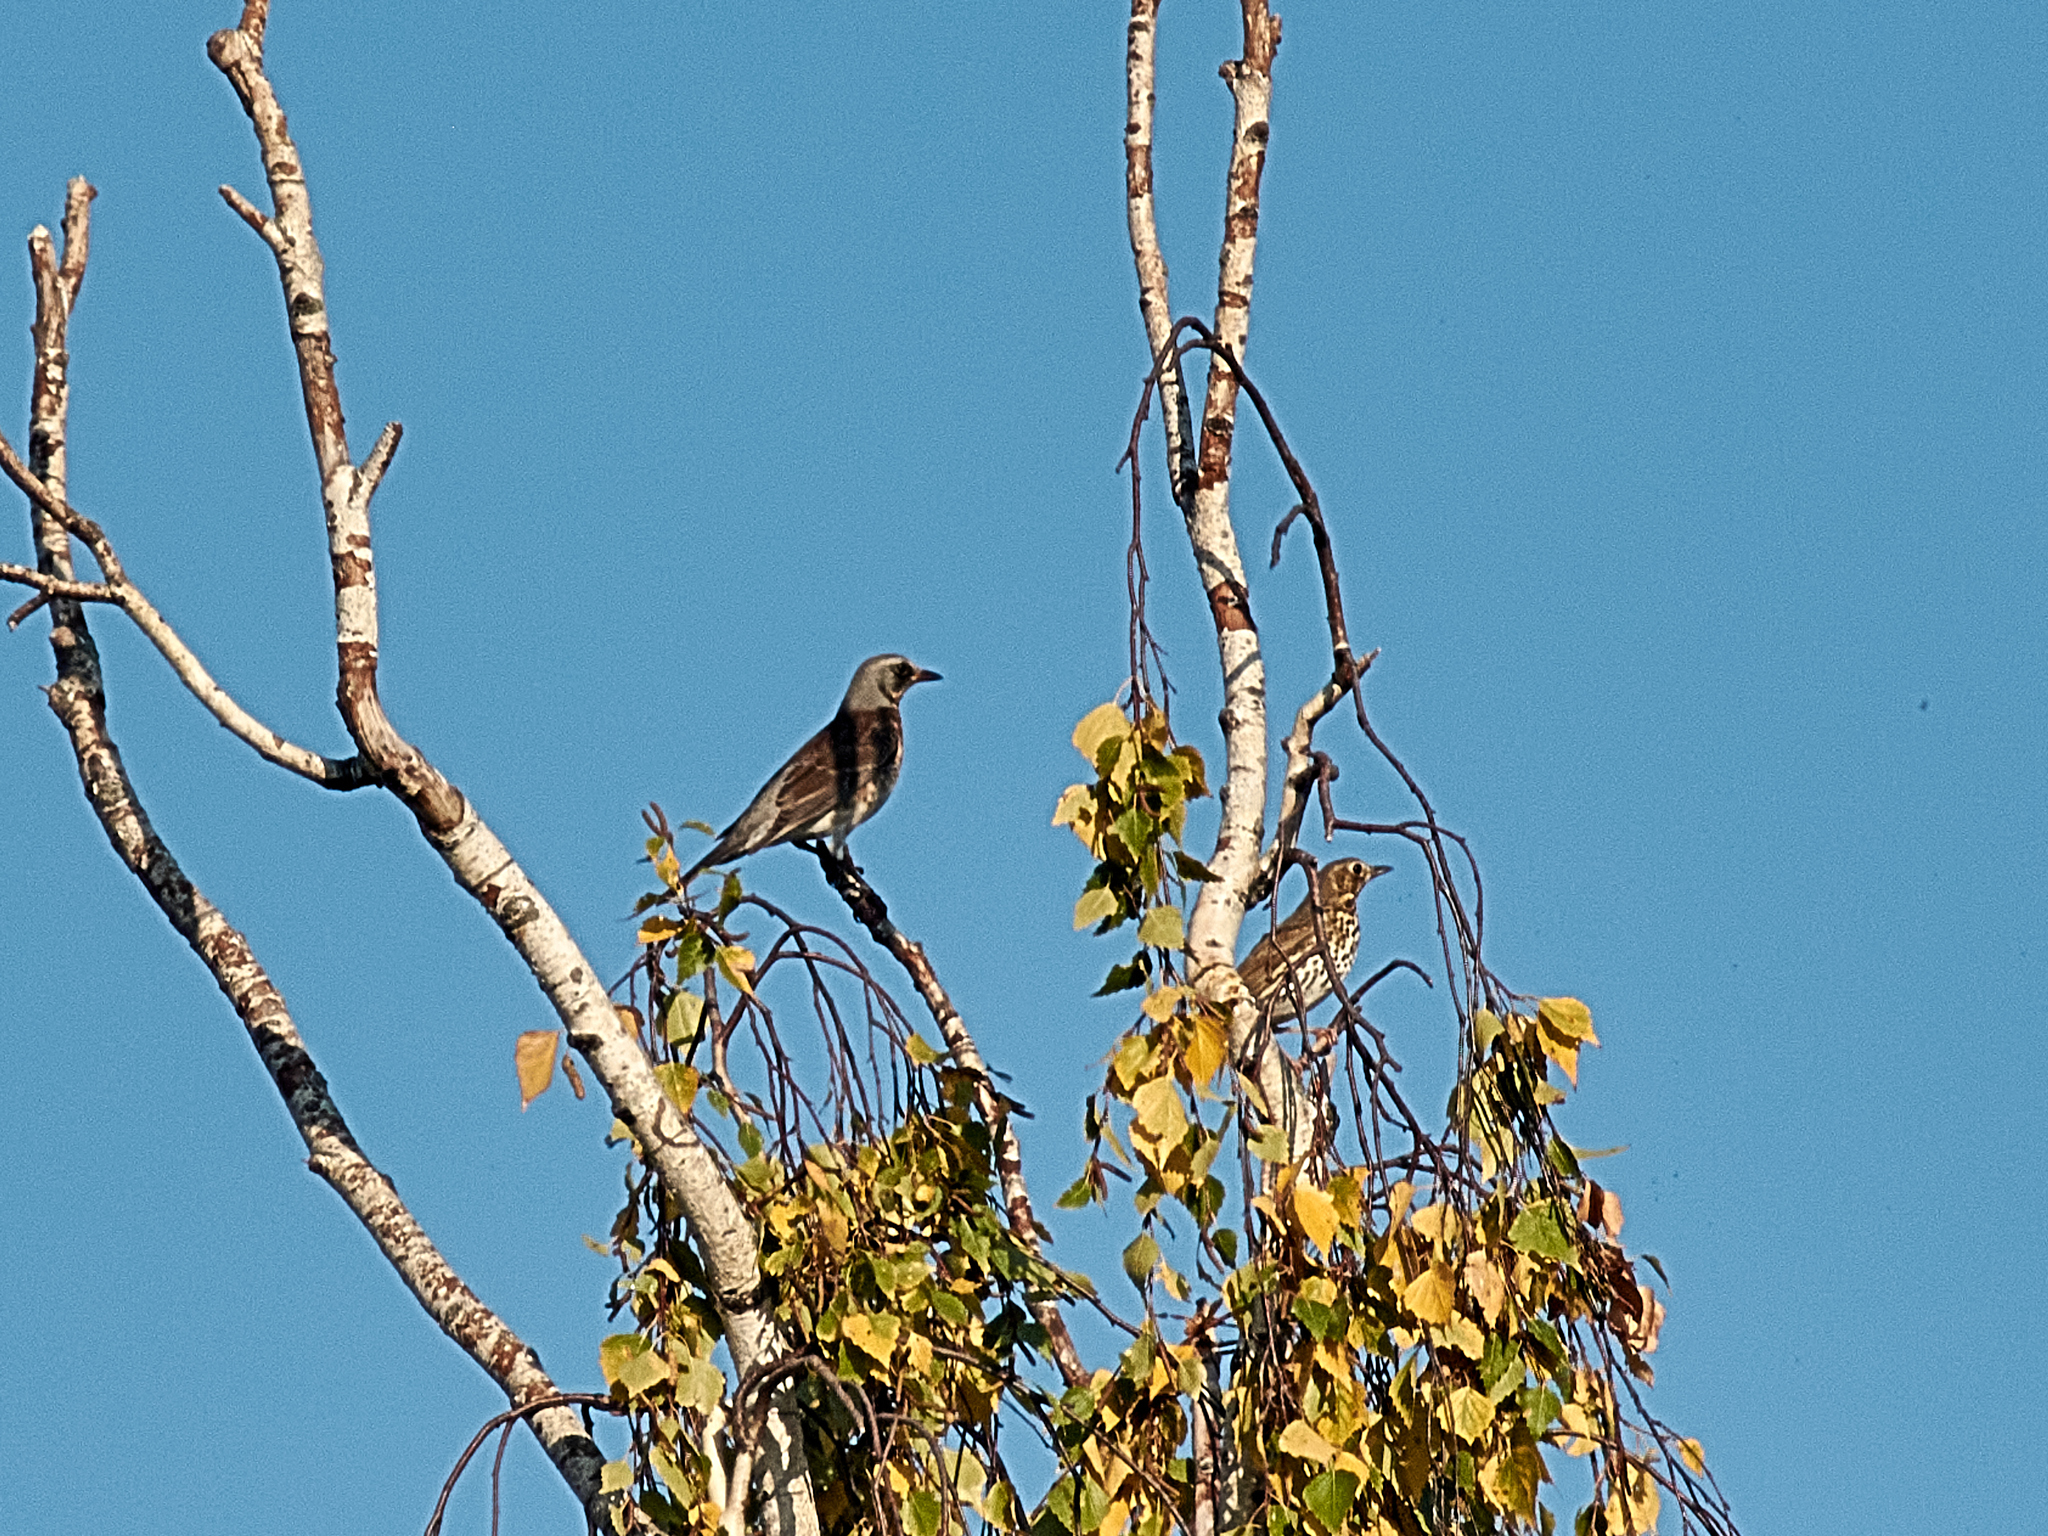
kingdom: Animalia
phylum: Chordata
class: Aves
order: Passeriformes
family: Turdidae
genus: Turdus
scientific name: Turdus pilaris
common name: Fieldfare
